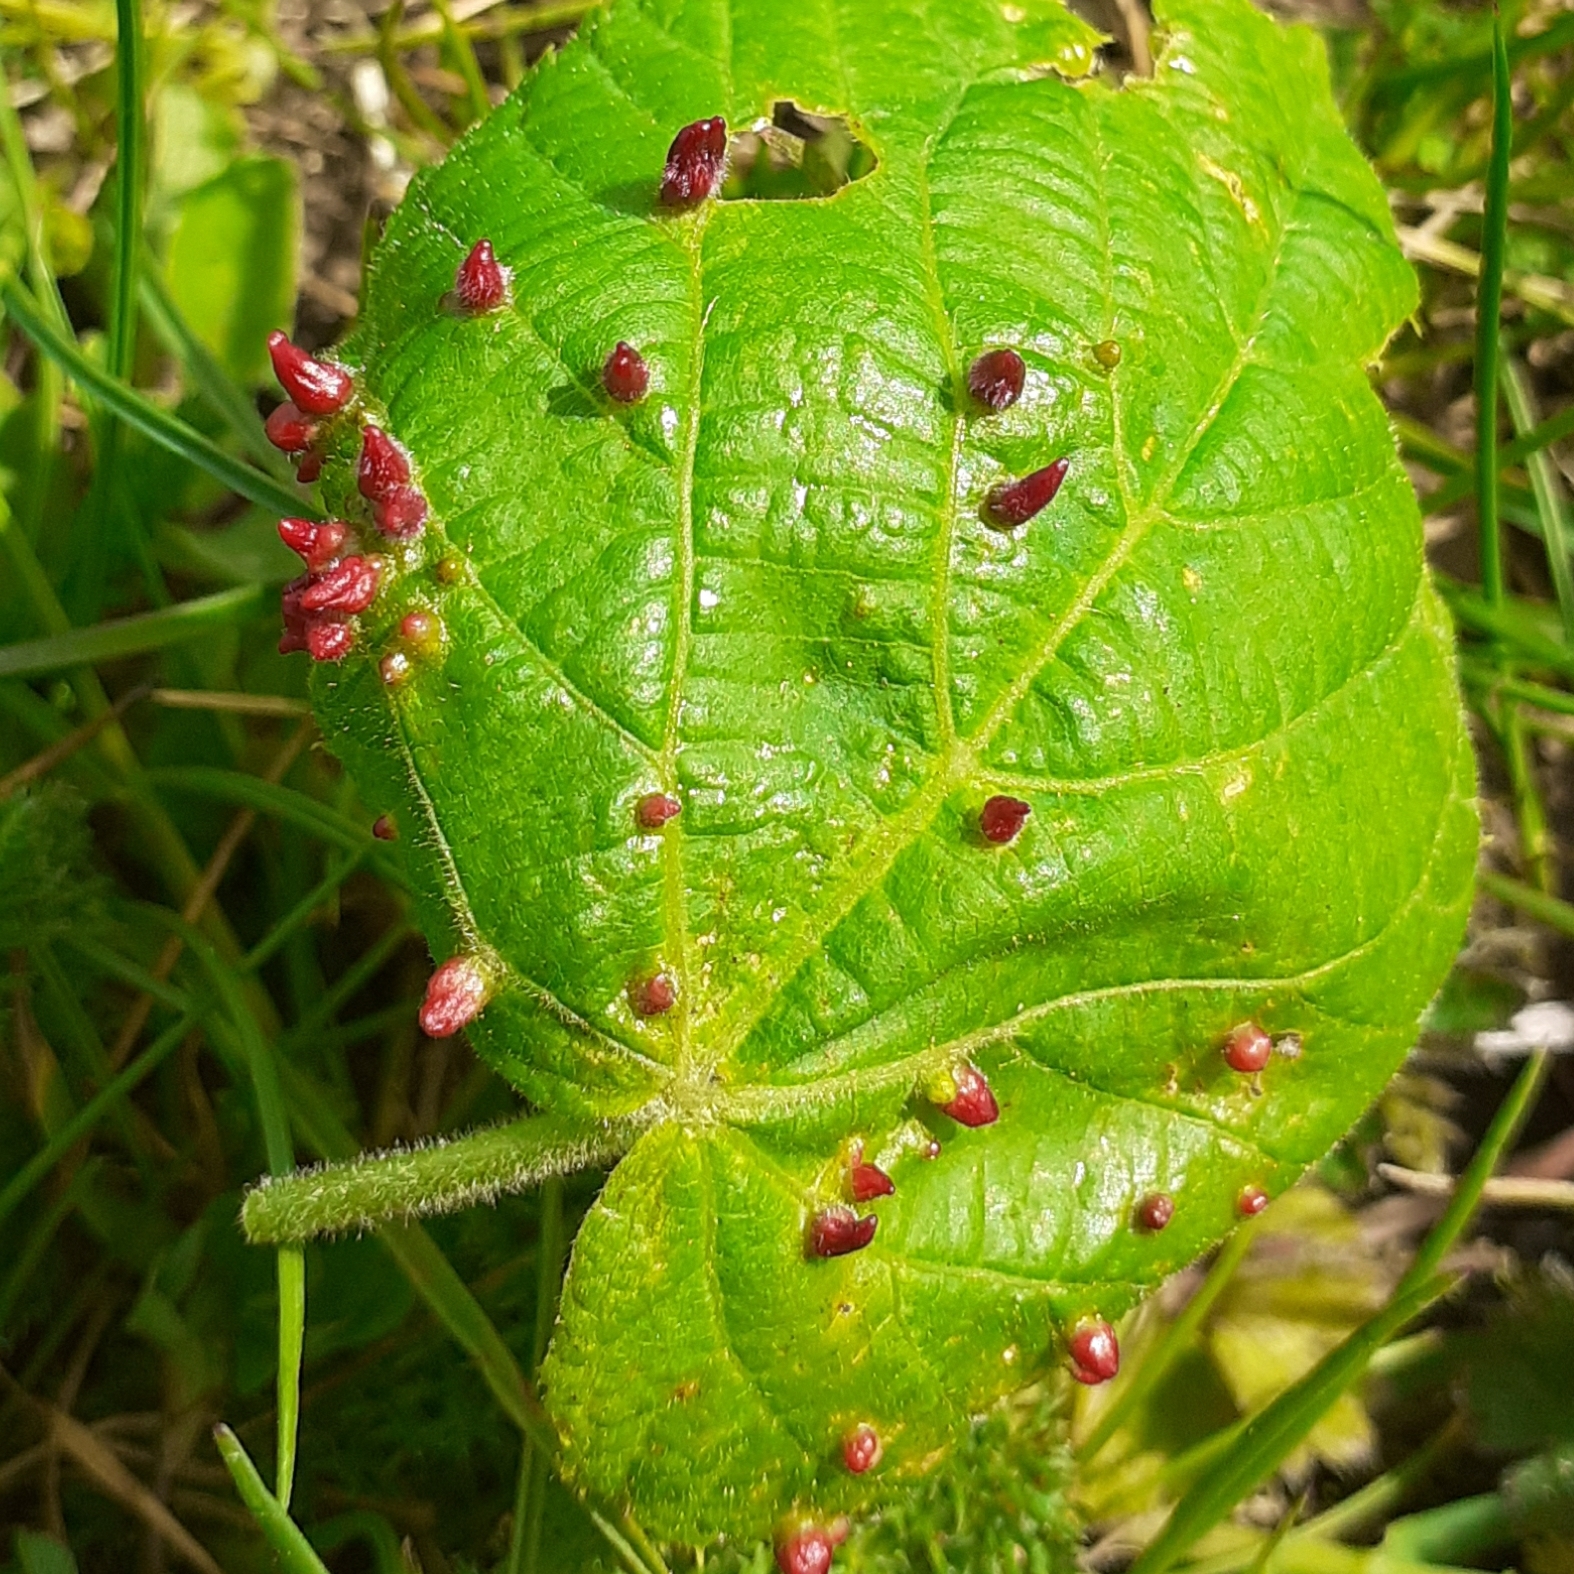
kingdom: Animalia
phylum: Arthropoda
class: Arachnida
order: Trombidiformes
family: Eriophyidae
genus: Eriophyes
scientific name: Eriophyes tiliae
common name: Red nail gall mite
